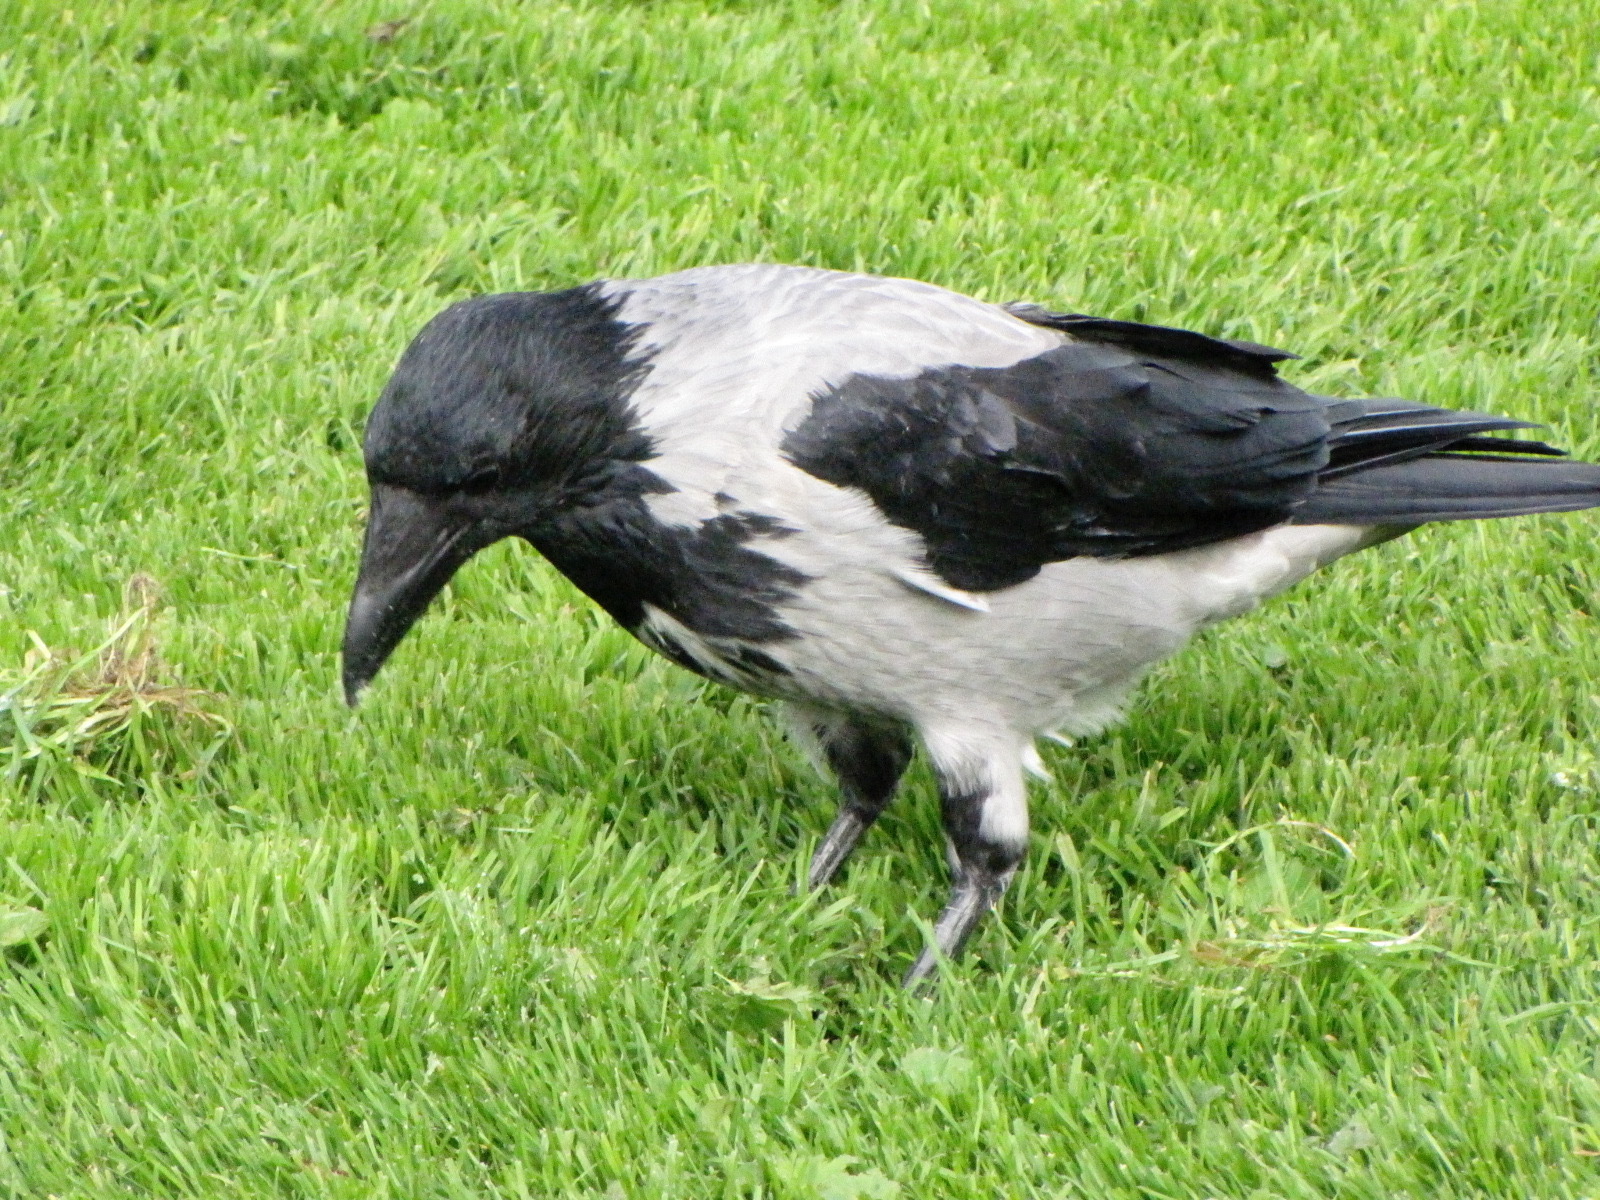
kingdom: Animalia
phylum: Chordata
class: Aves
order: Passeriformes
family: Corvidae
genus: Corvus
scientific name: Corvus cornix
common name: Hooded crow
